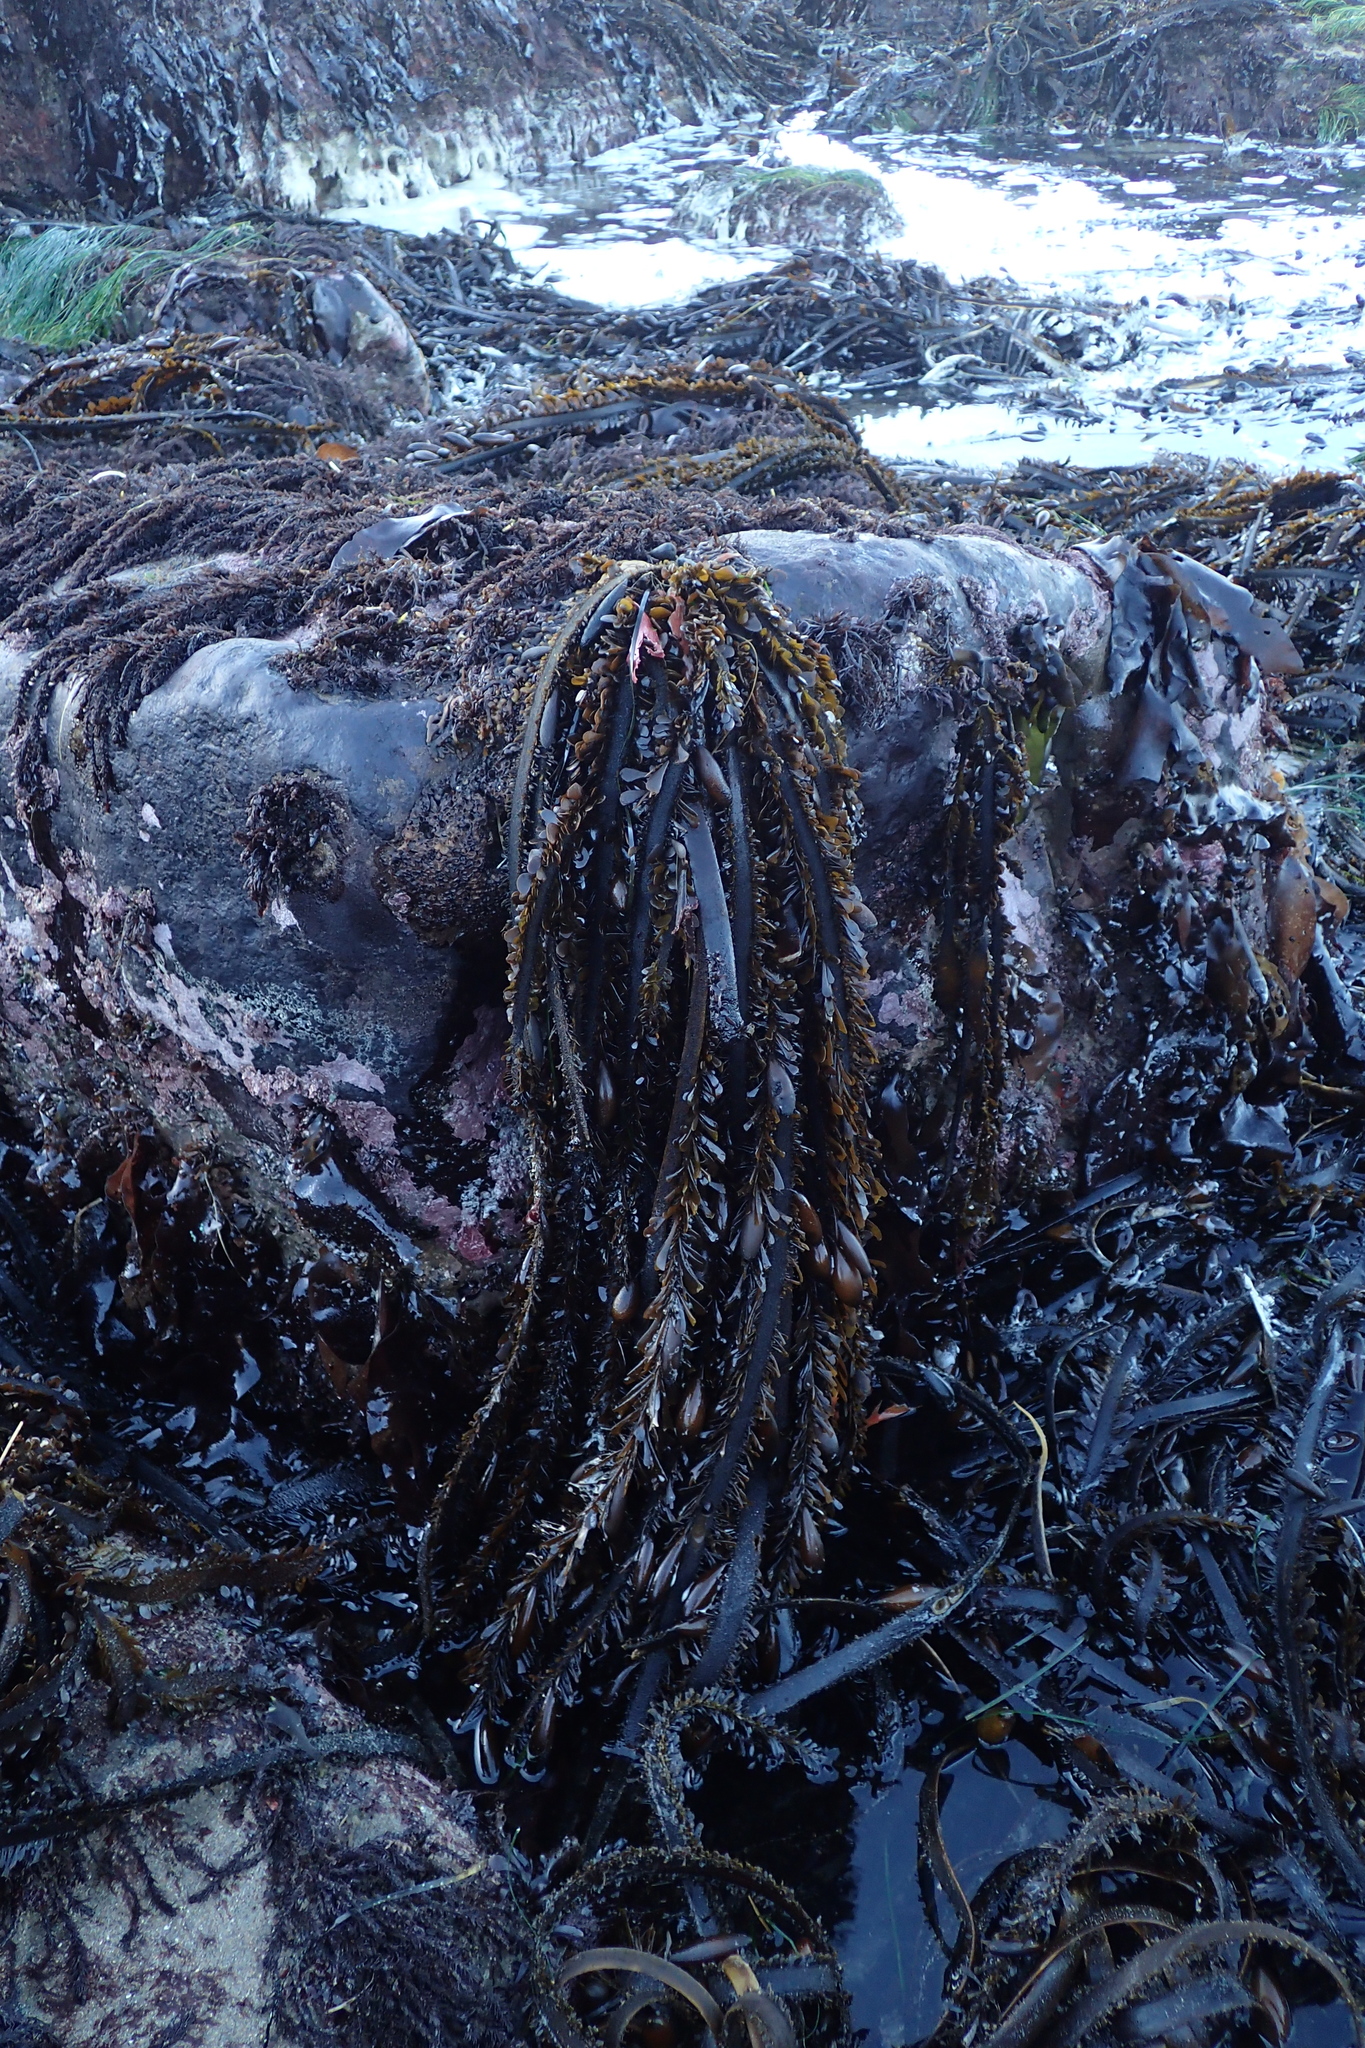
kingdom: Chromista
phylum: Ochrophyta
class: Phaeophyceae
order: Laminariales
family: Lessoniaceae
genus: Egregia
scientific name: Egregia menziesii
